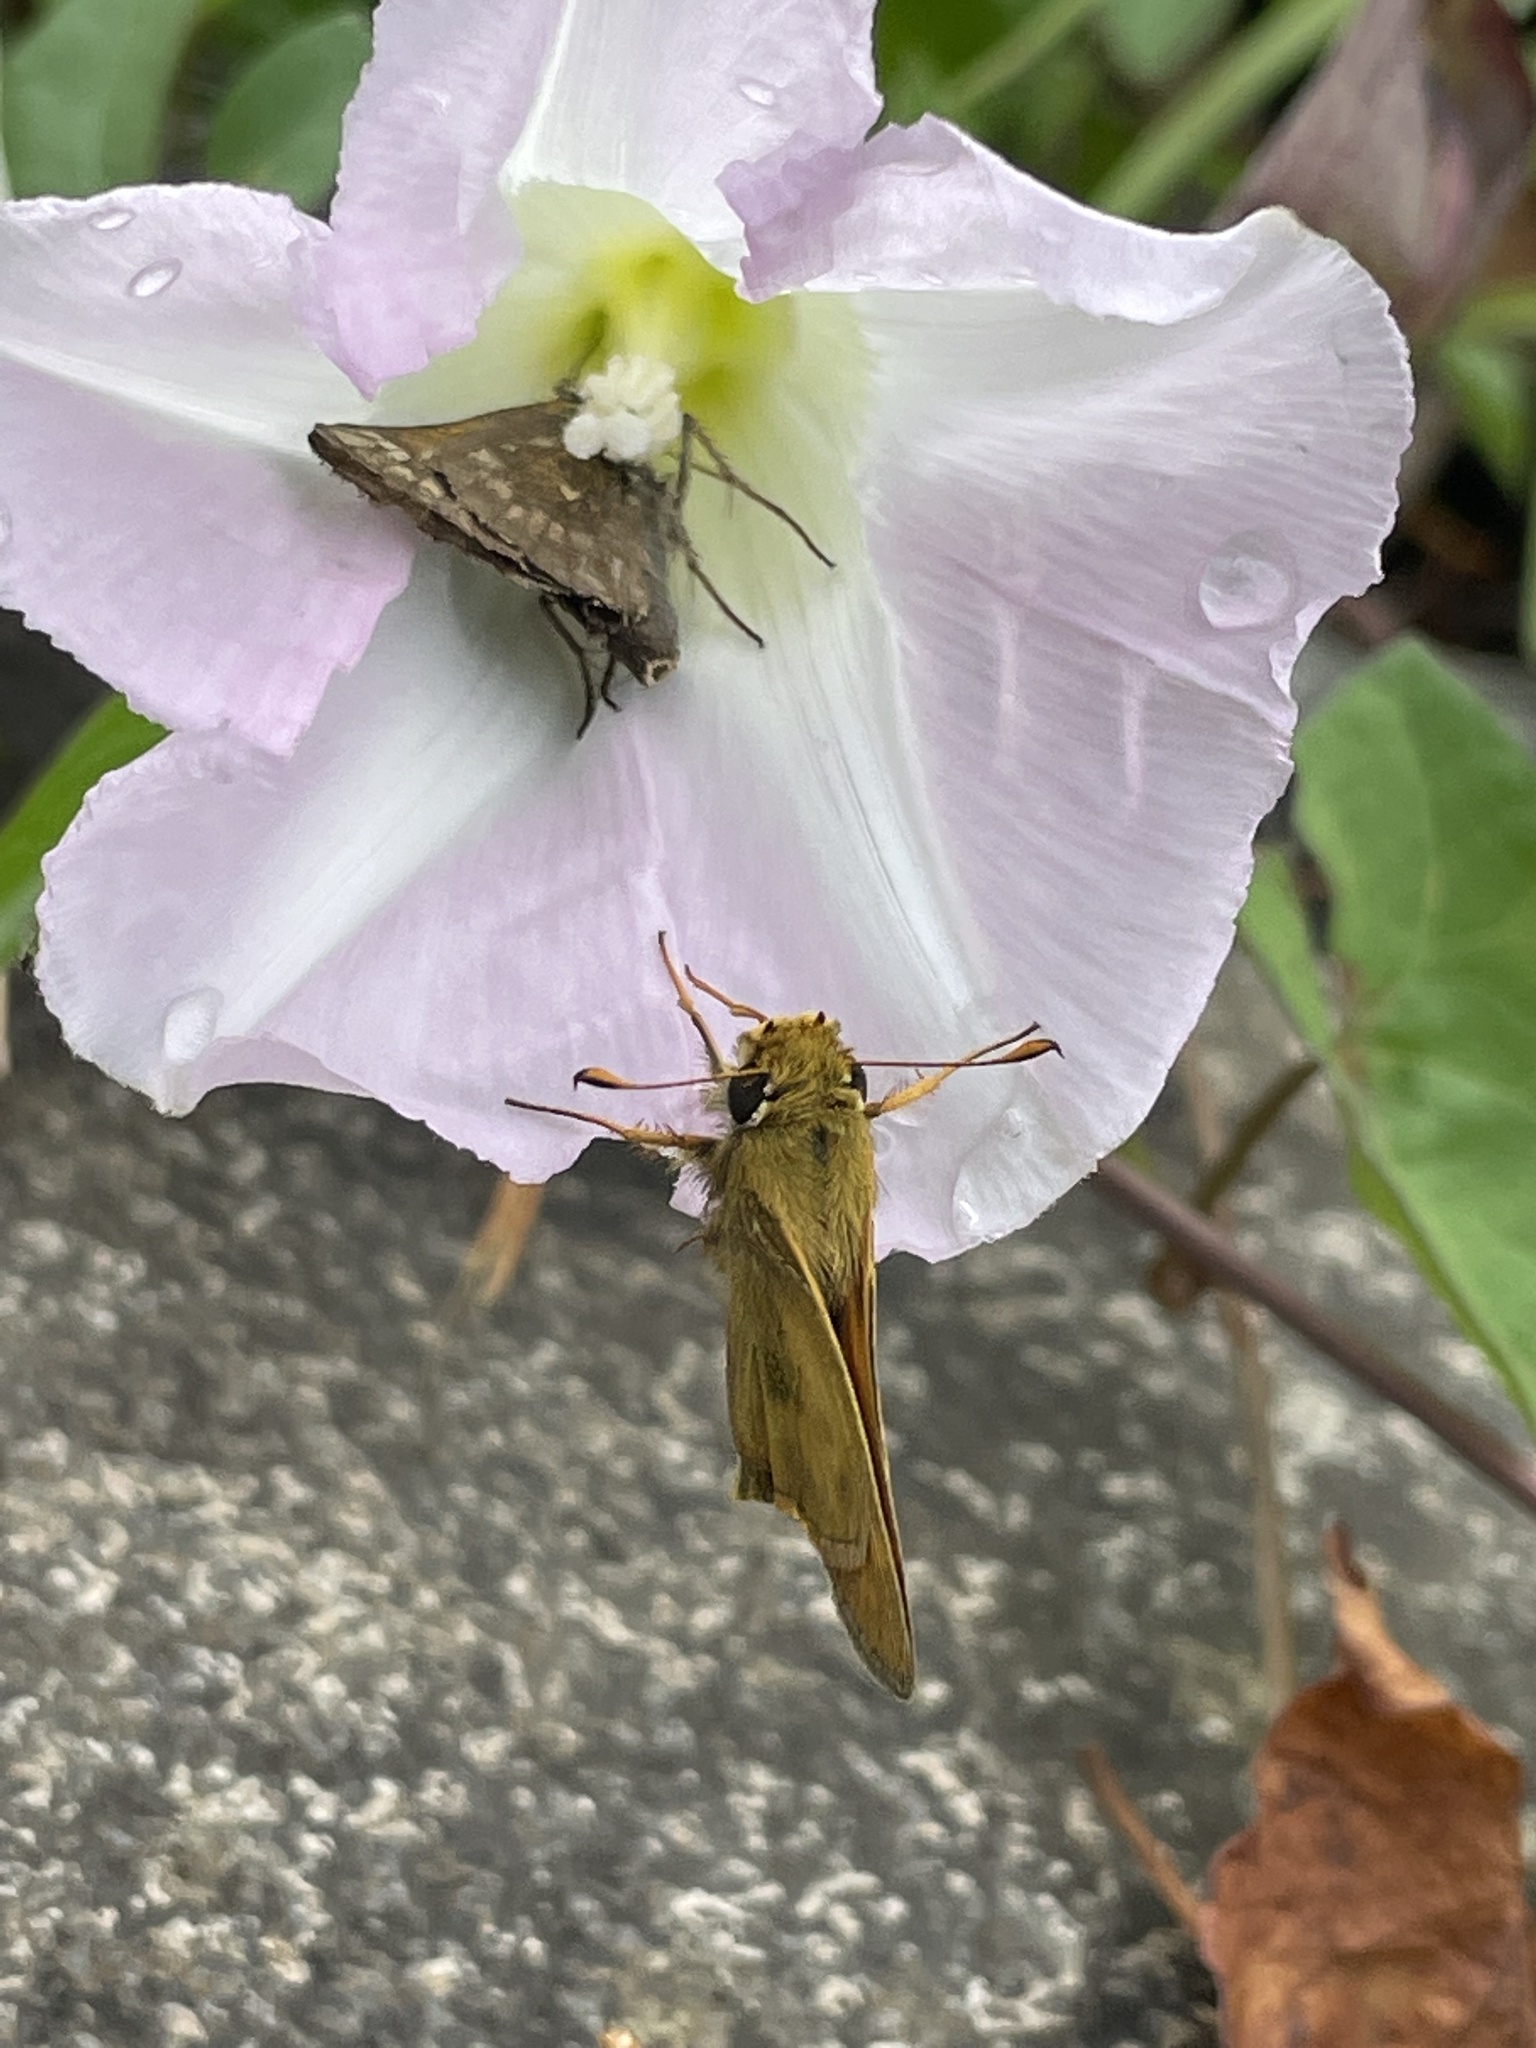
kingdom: Animalia
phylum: Arthropoda
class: Insecta
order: Lepidoptera
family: Hesperiidae
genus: Atalopedes
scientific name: Atalopedes
